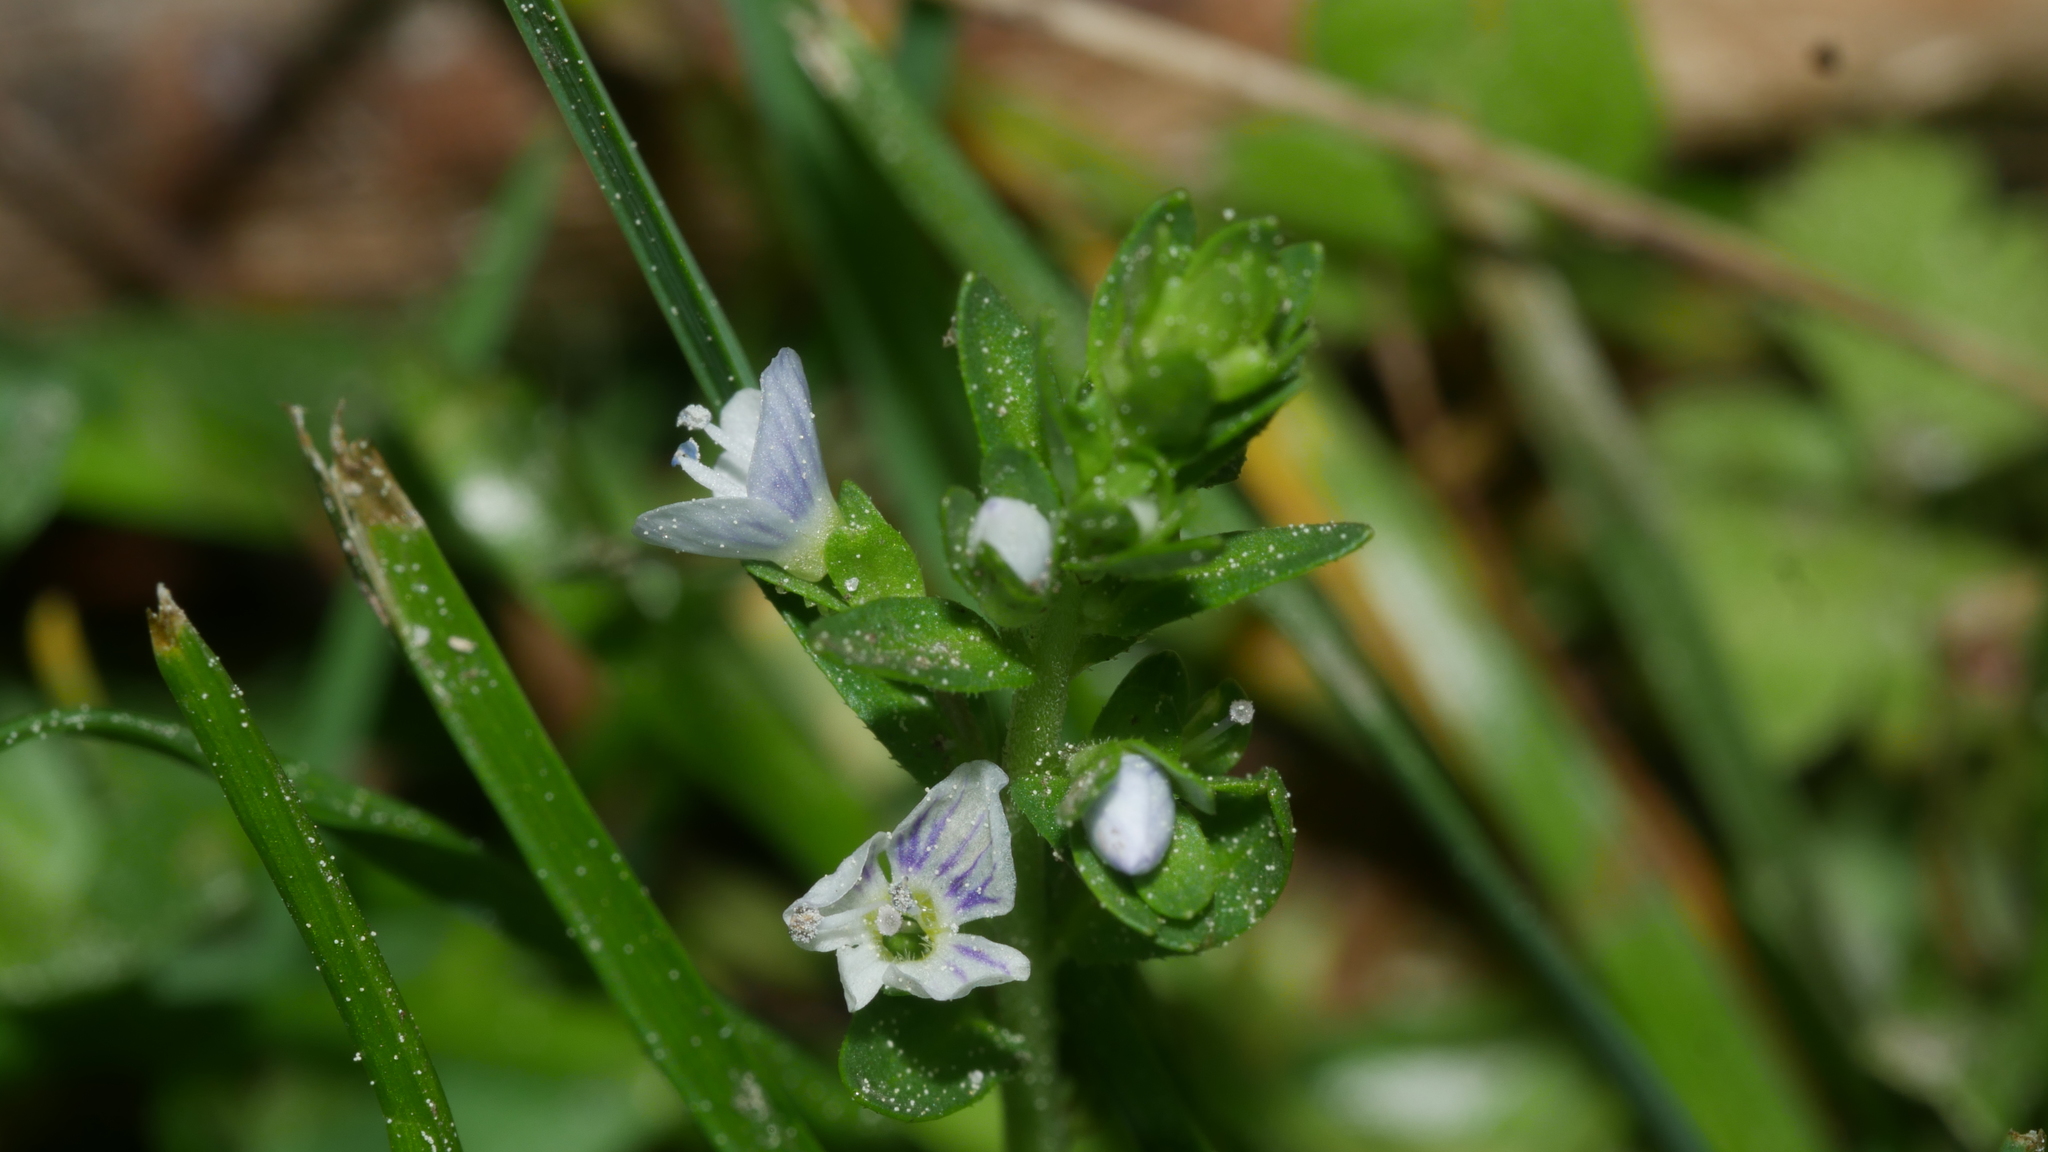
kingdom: Plantae
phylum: Tracheophyta
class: Magnoliopsida
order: Lamiales
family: Plantaginaceae
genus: Veronica
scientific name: Veronica serpyllifolia
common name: Thyme-leaved speedwell
